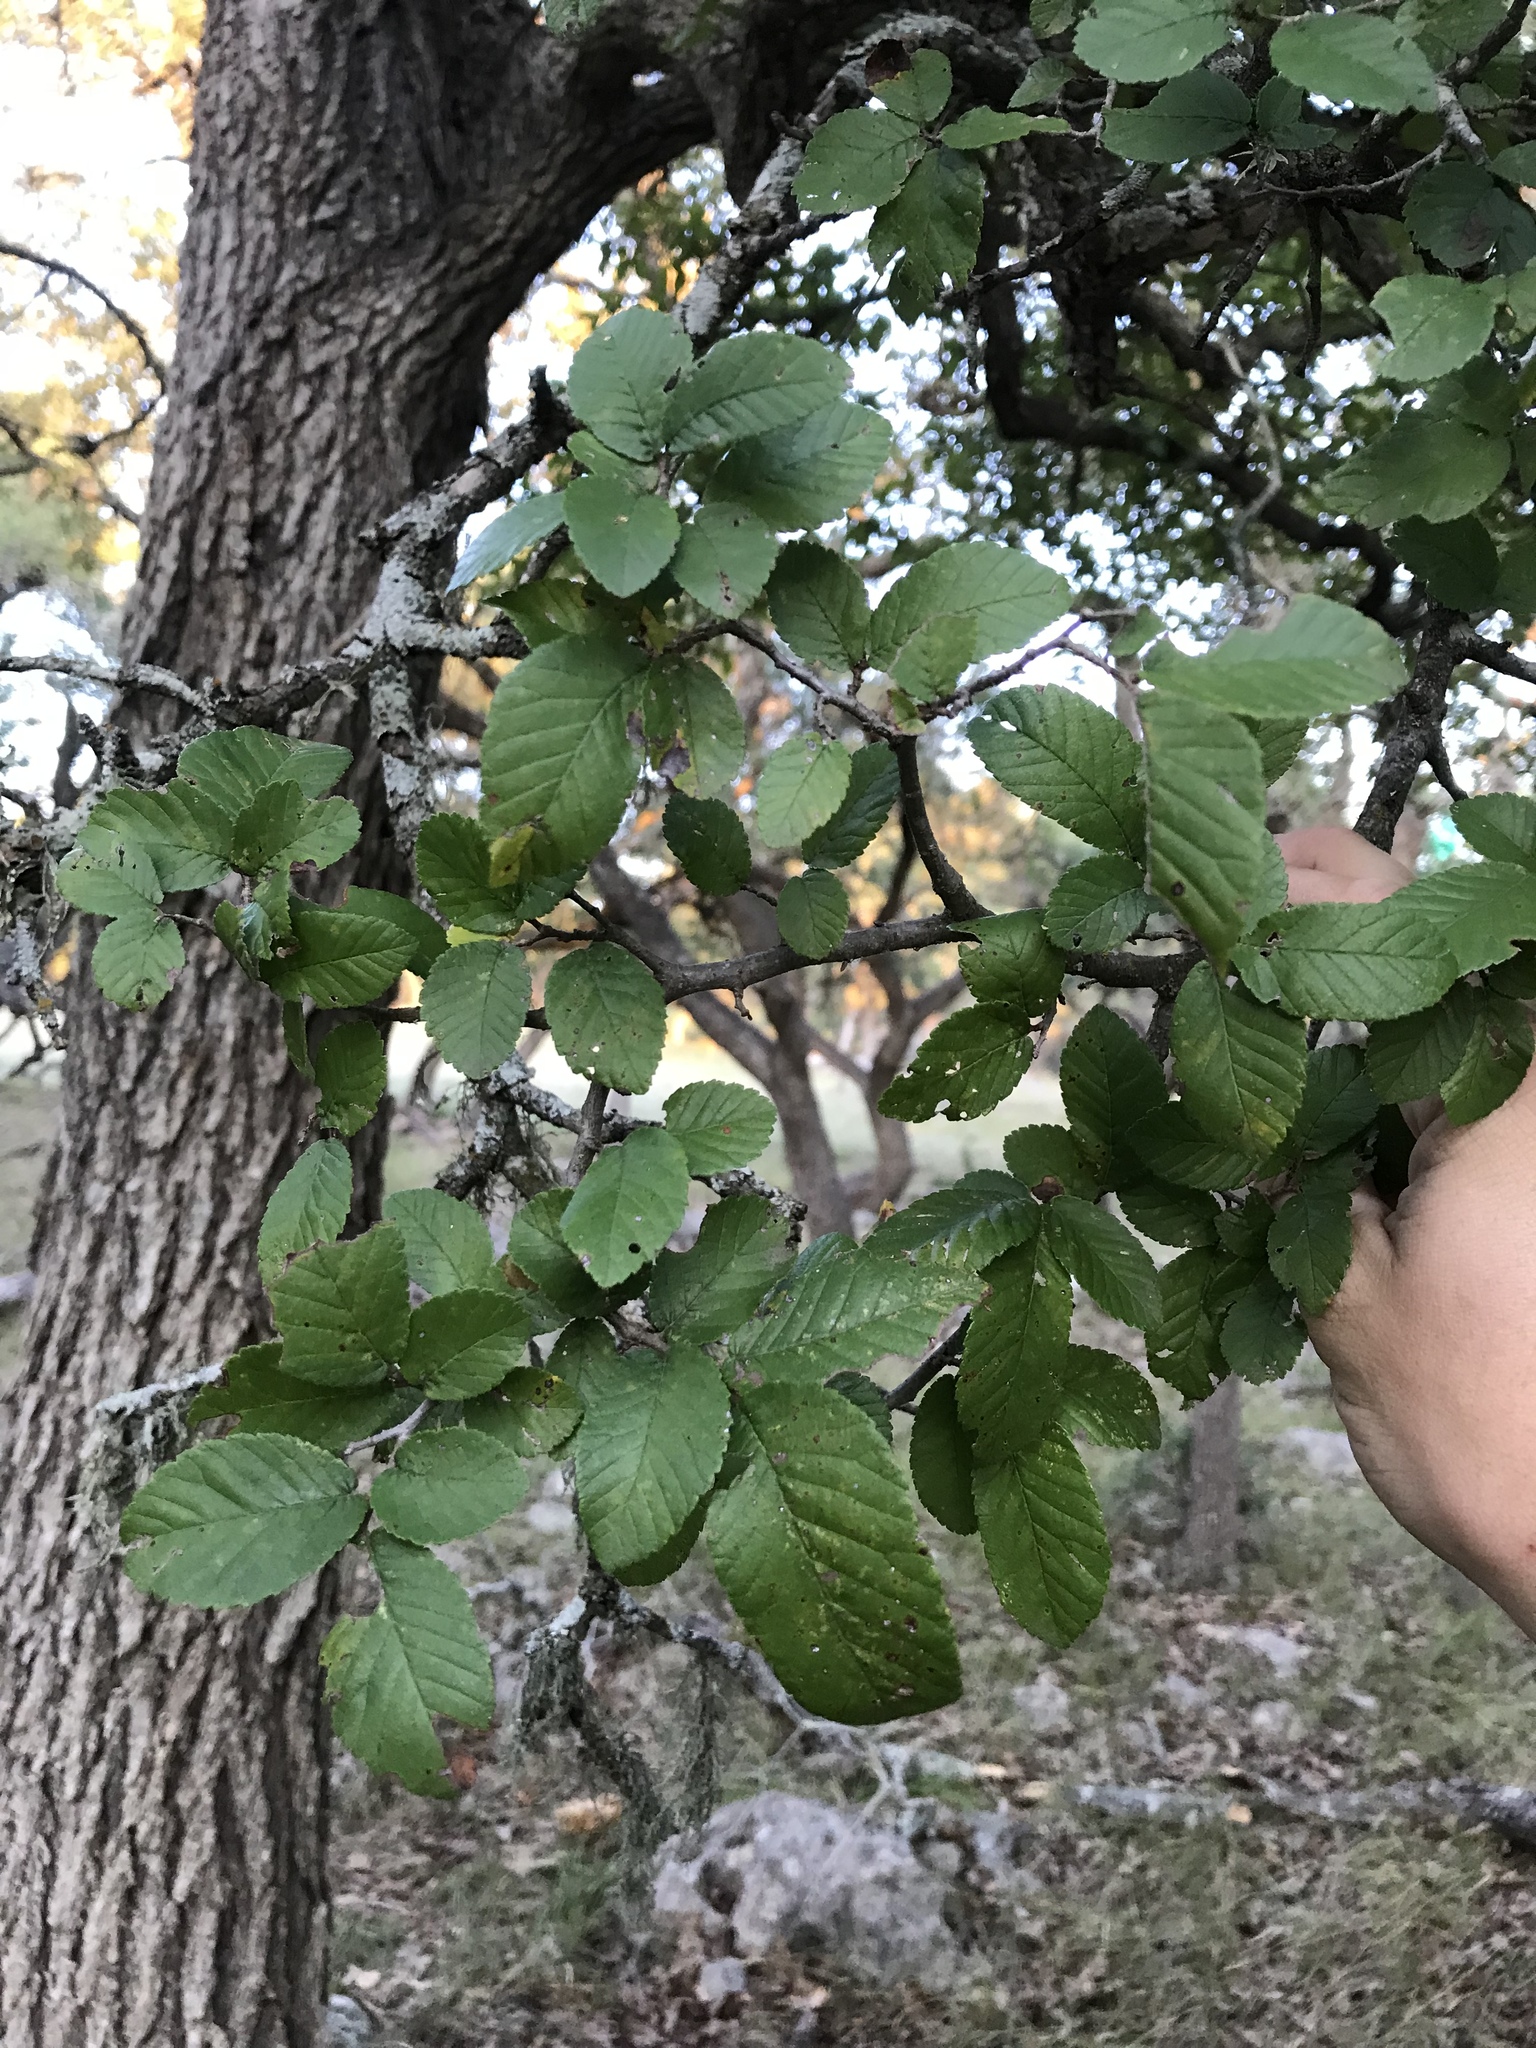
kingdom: Plantae
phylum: Tracheophyta
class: Magnoliopsida
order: Rosales
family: Ulmaceae
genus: Ulmus
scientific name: Ulmus crassifolia
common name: Basket elm
